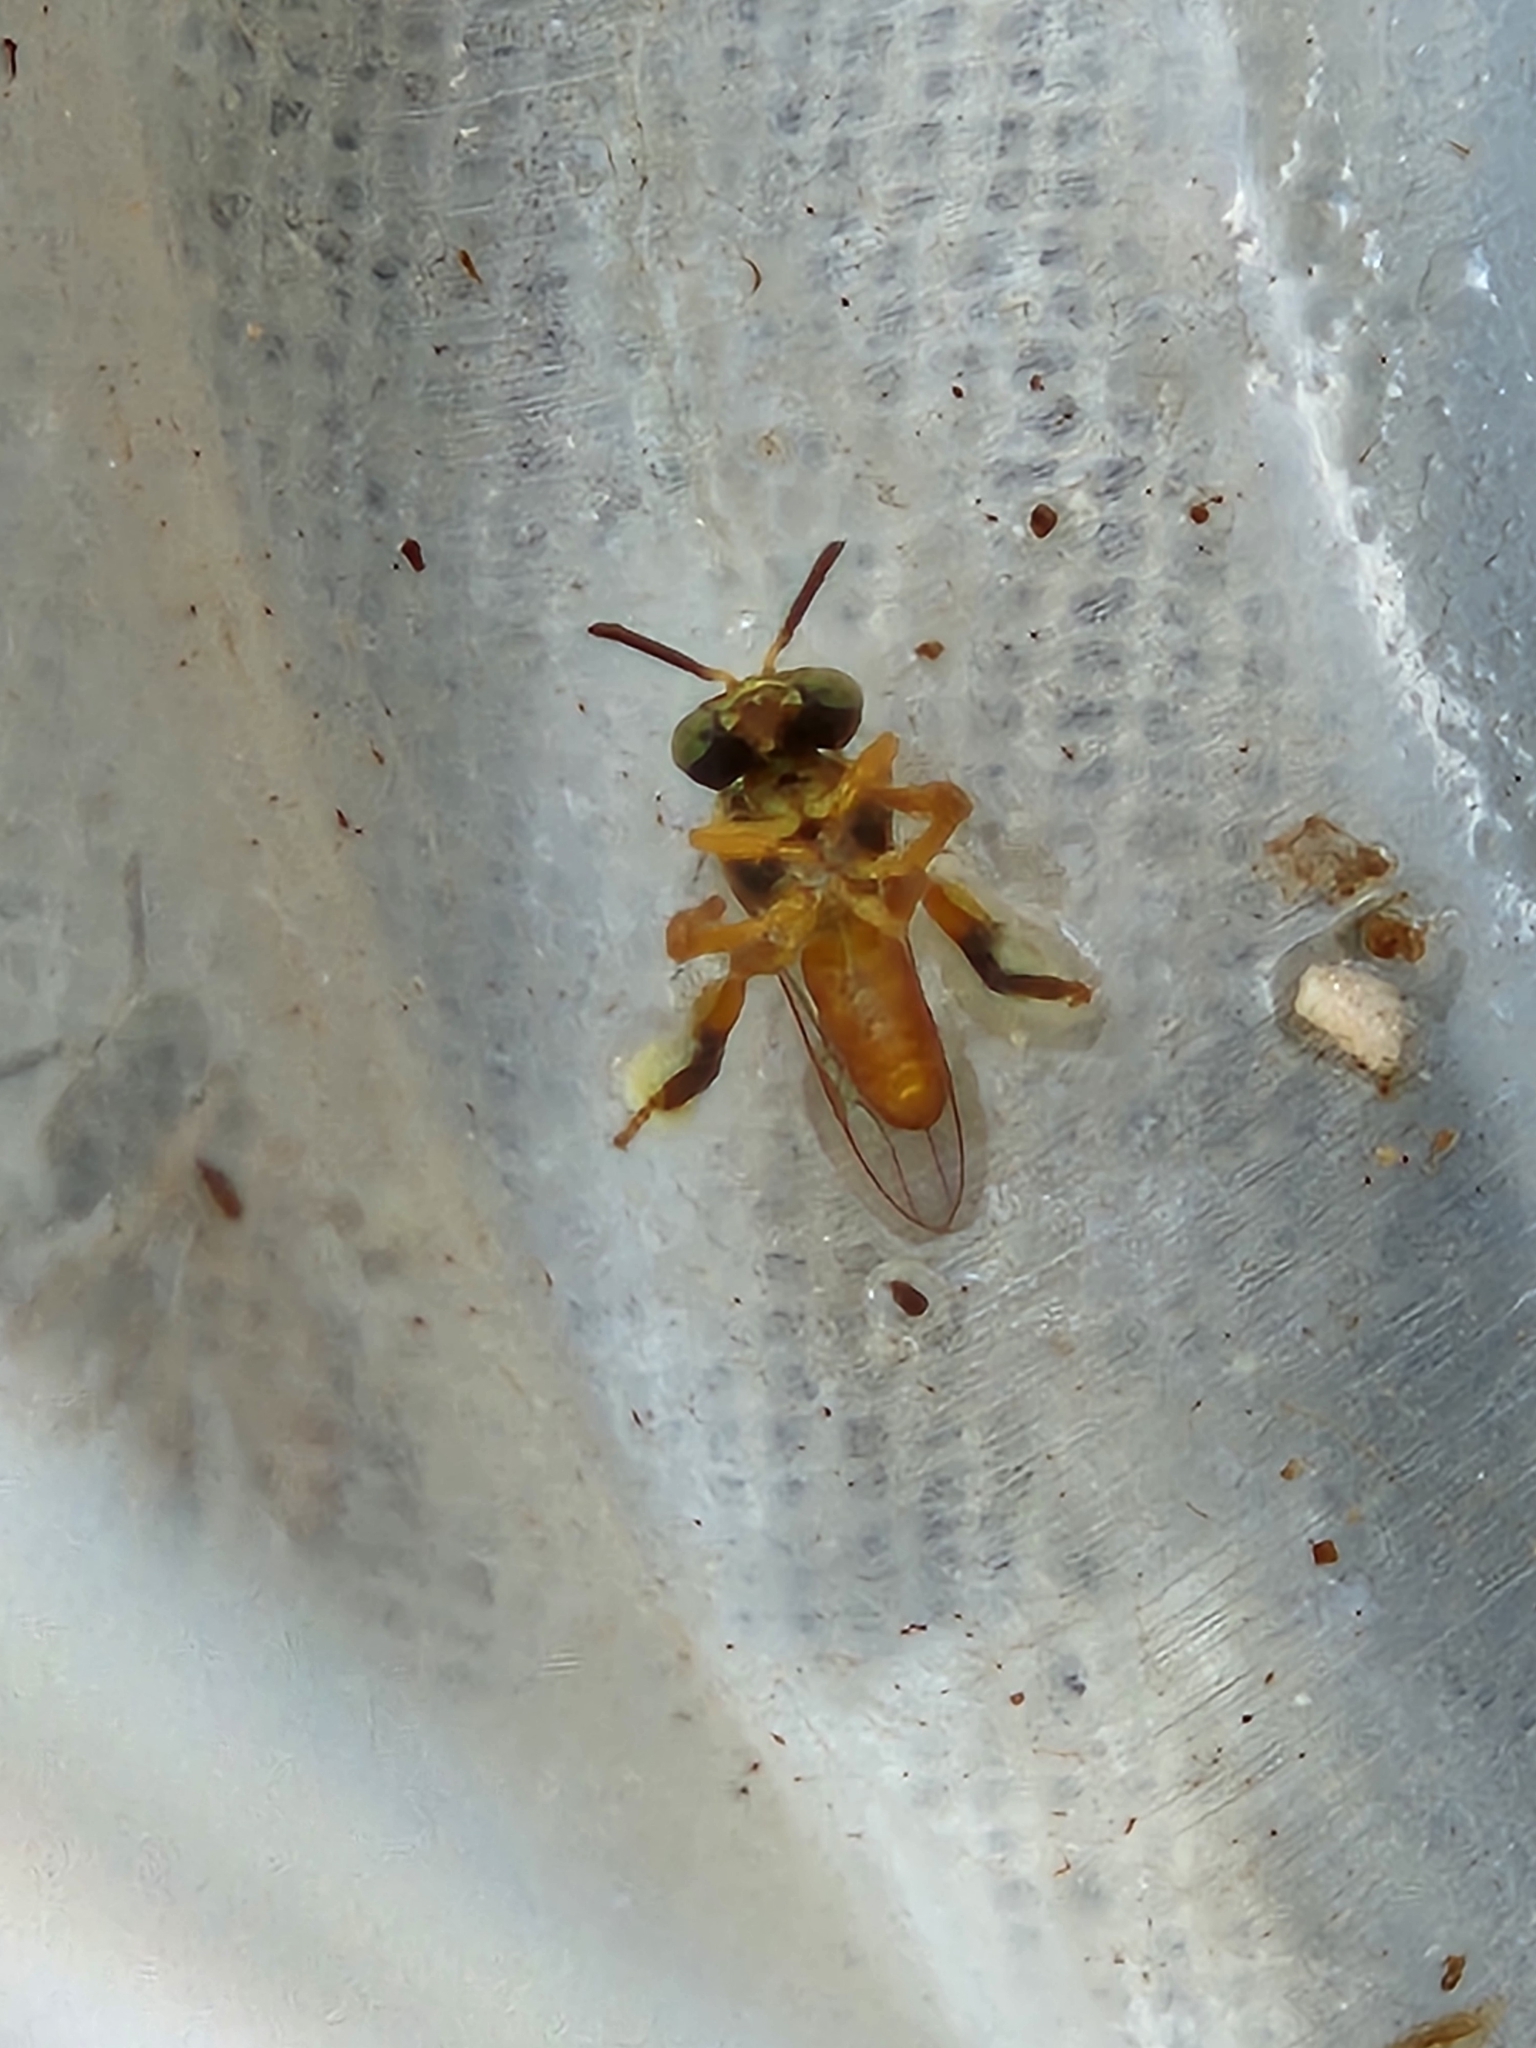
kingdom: Animalia
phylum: Arthropoda
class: Insecta
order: Hymenoptera
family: Apidae
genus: Tetragonisca
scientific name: Tetragonisca angustula
